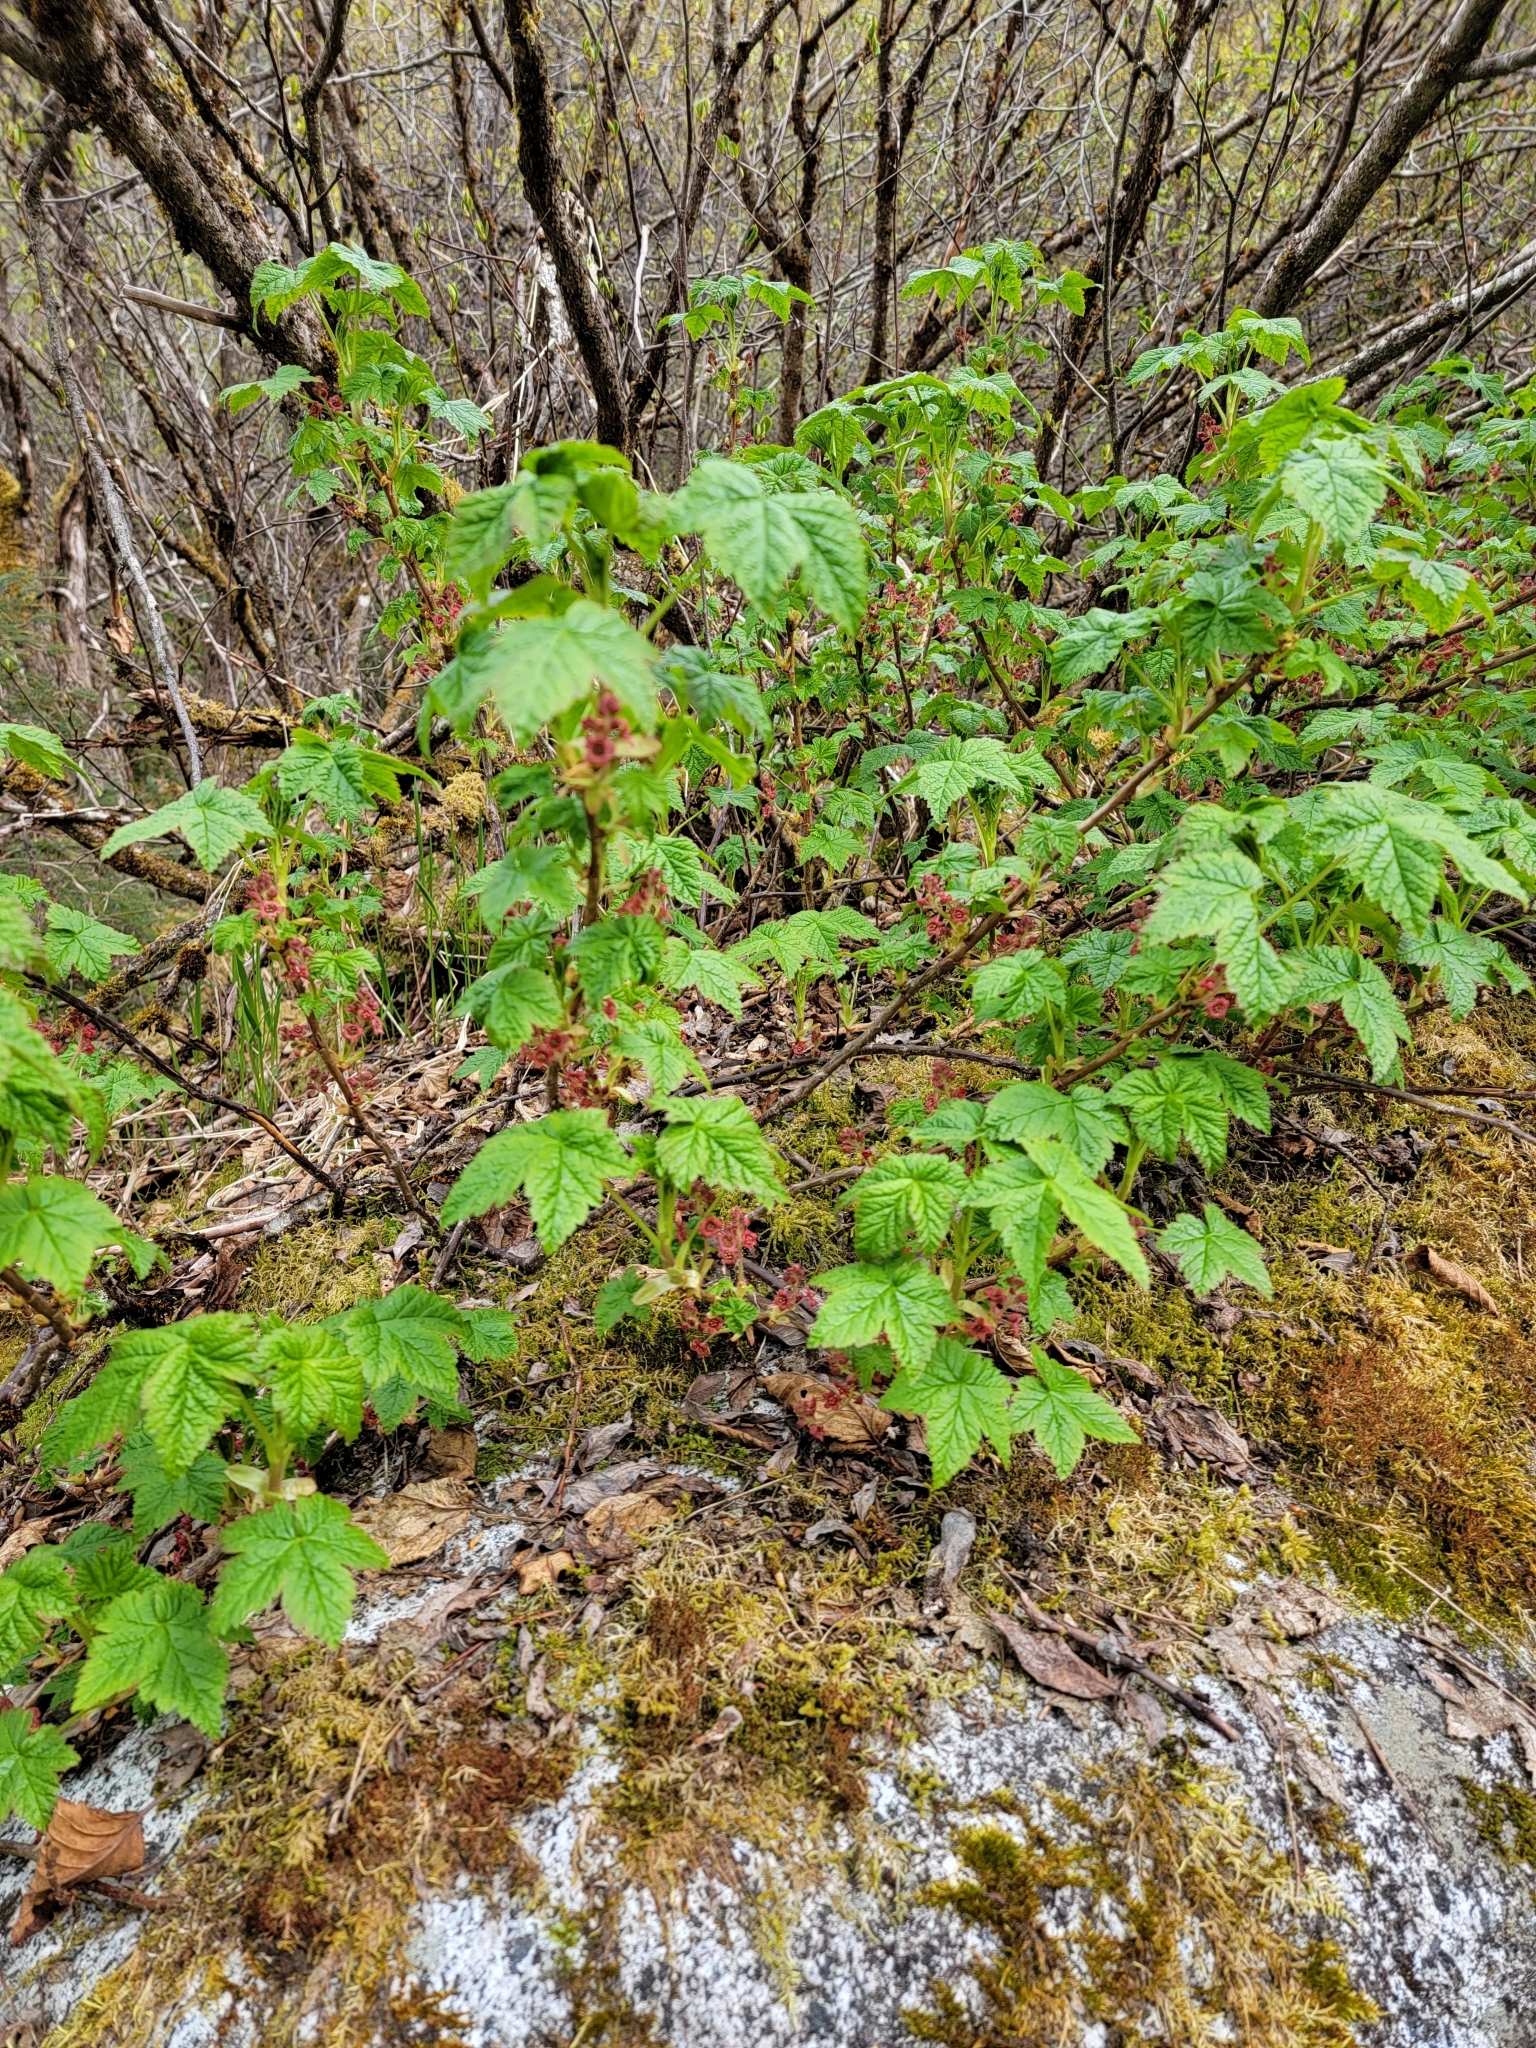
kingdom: Plantae
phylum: Tracheophyta
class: Magnoliopsida
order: Saxifragales
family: Grossulariaceae
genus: Ribes
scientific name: Ribes laxiflorum
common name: Spreading currant
